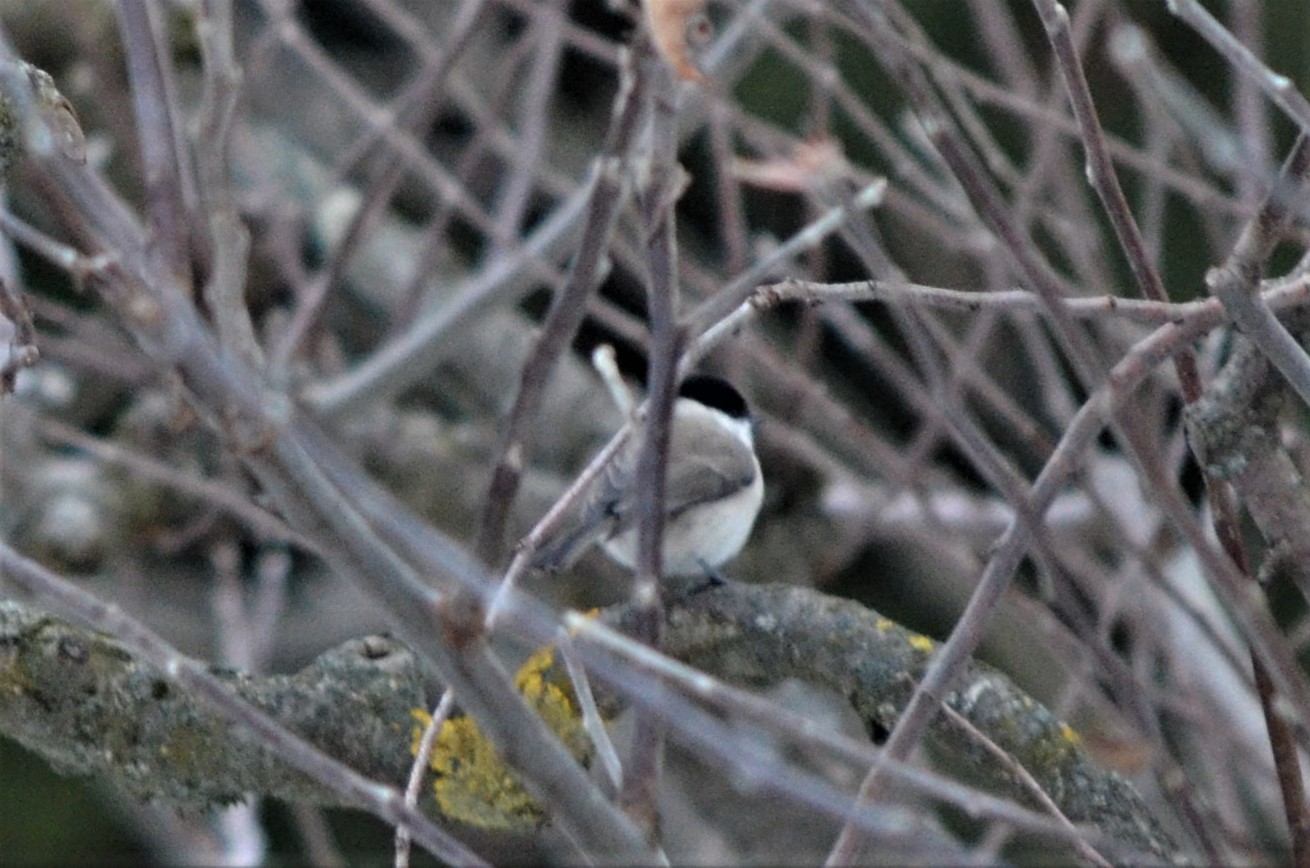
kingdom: Animalia
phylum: Chordata
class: Aves
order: Passeriformes
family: Paridae
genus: Poecile
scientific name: Poecile palustris
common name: Marsh tit
